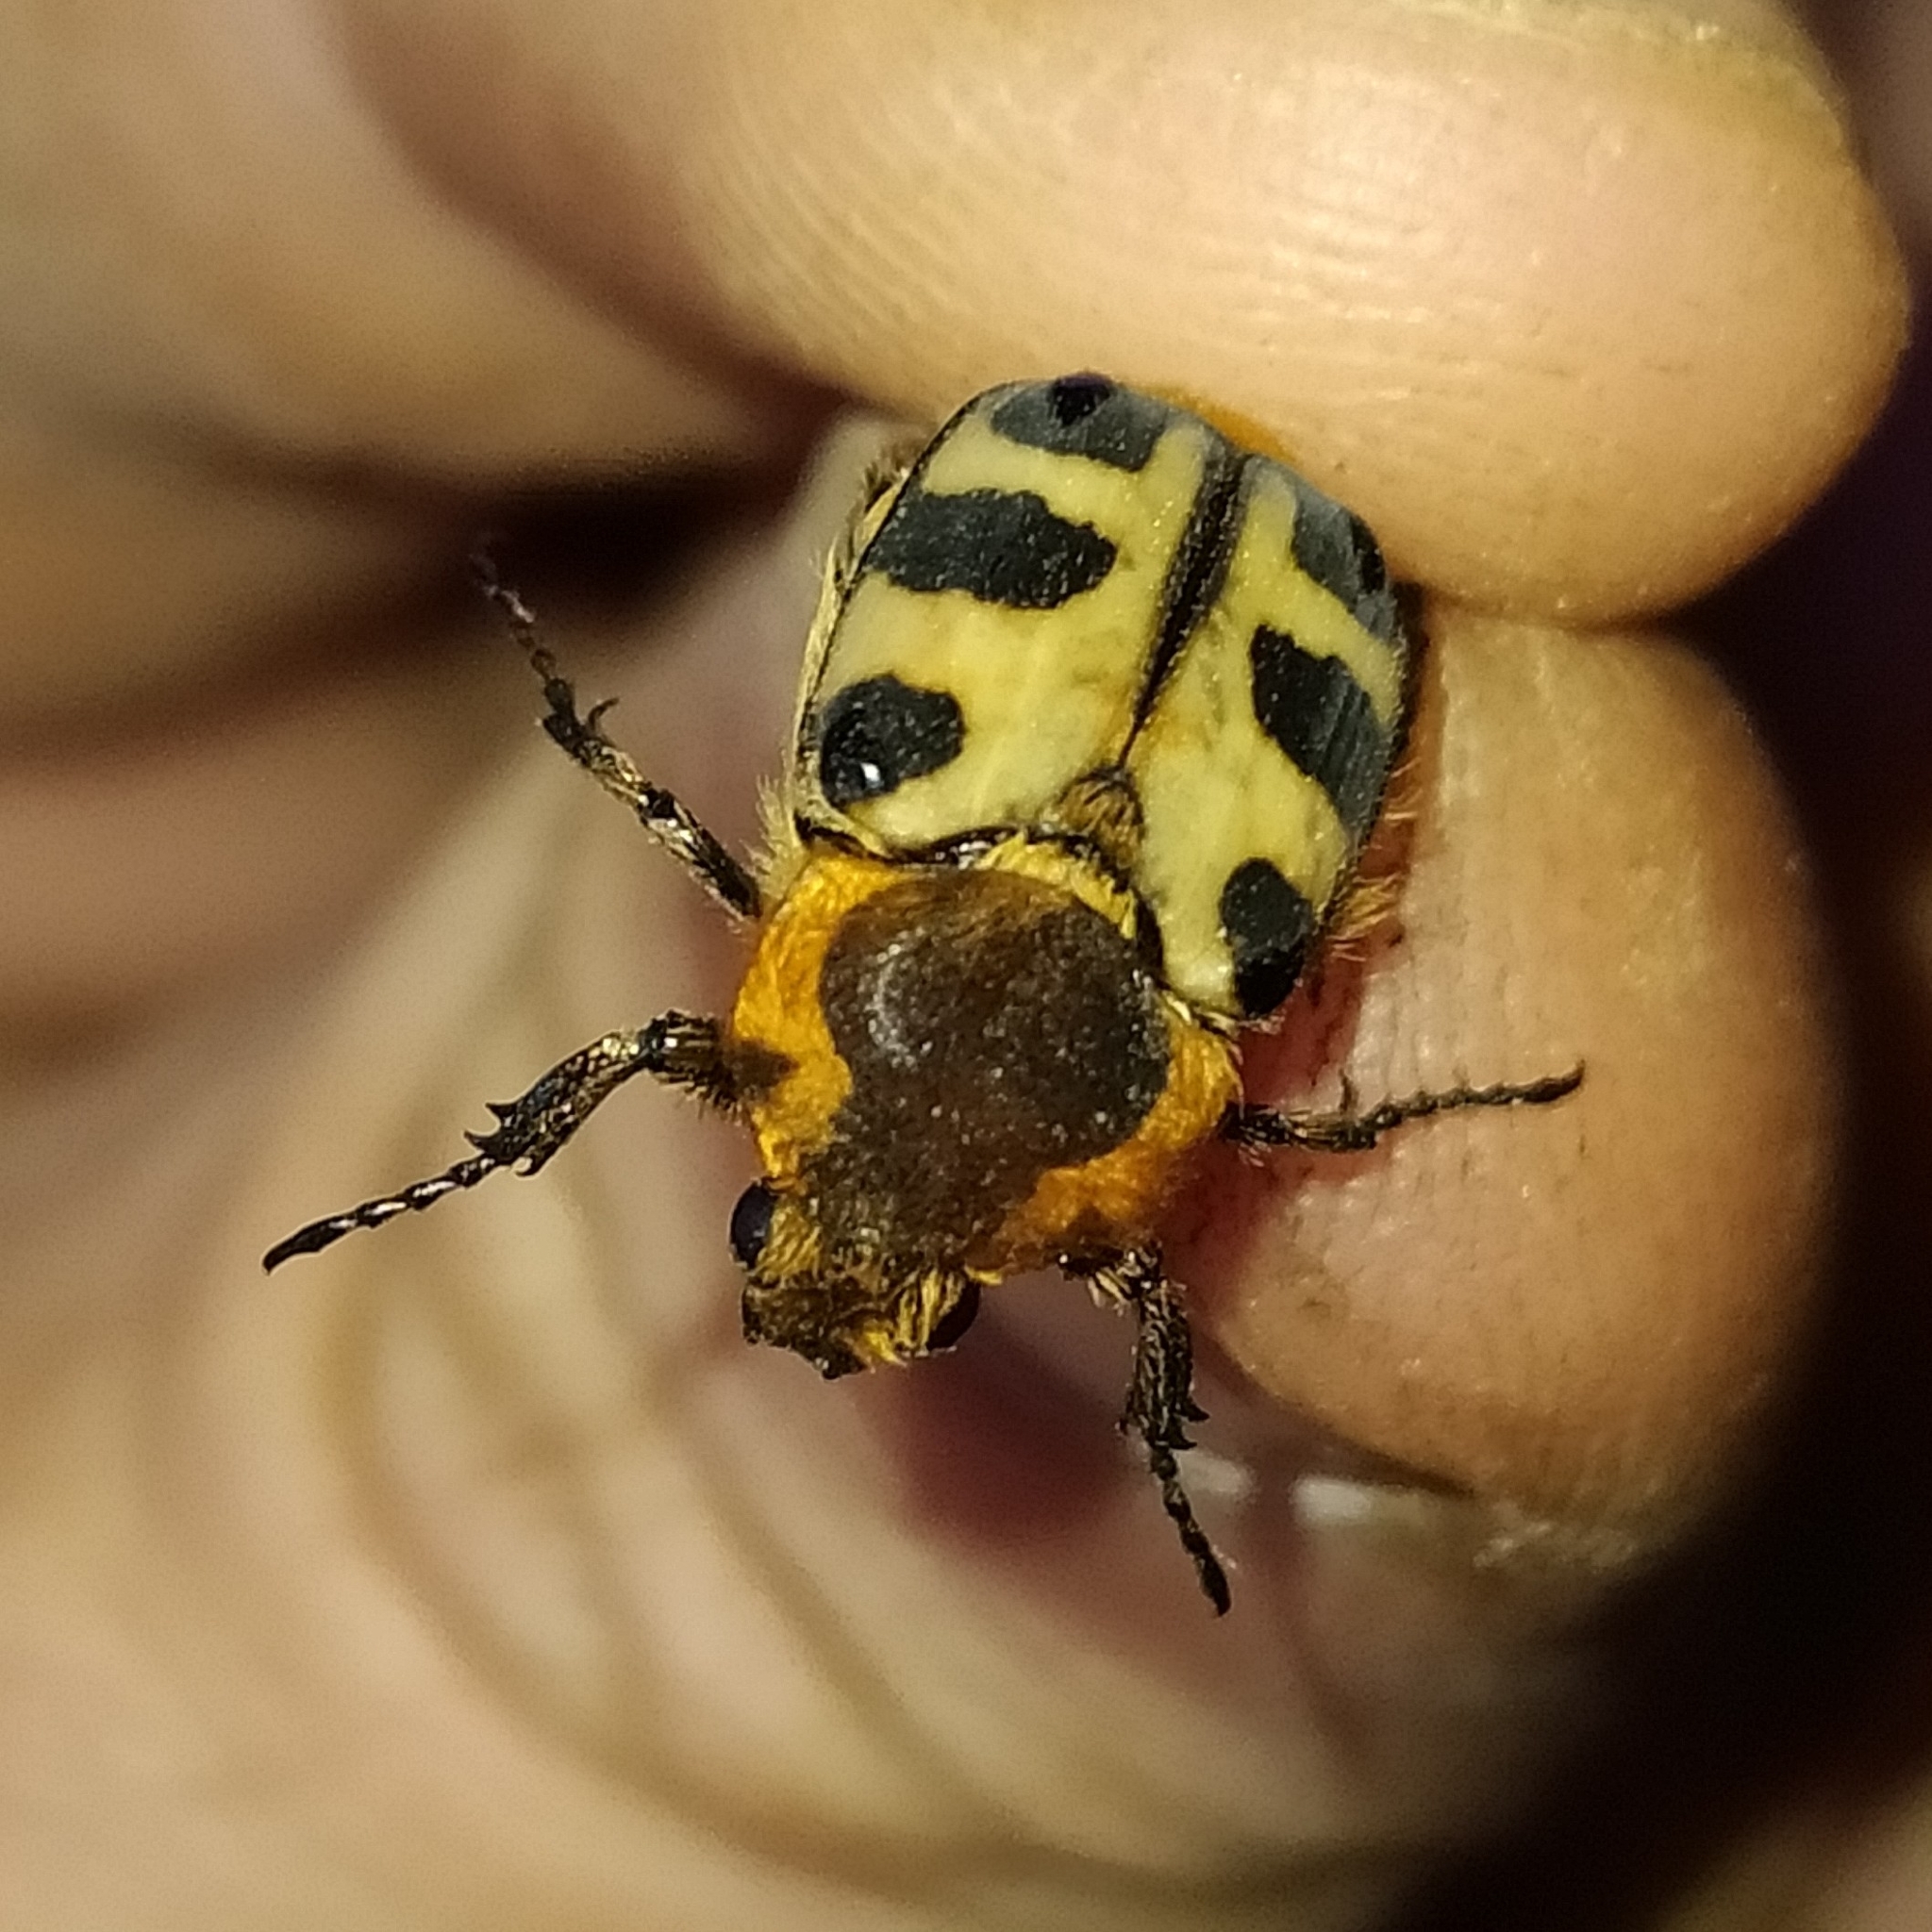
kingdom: Animalia
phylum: Arthropoda
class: Insecta
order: Coleoptera
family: Scarabaeidae
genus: Trichius
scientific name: Trichius gallicus
